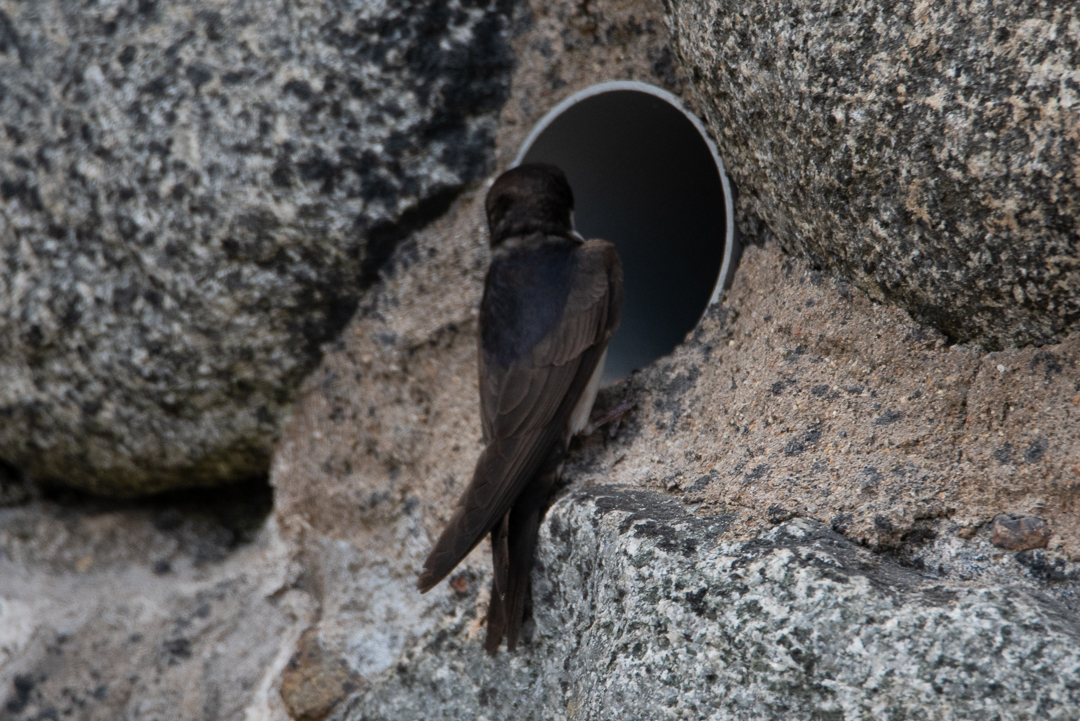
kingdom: Animalia
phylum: Chordata
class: Aves
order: Passeriformes
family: Hirundinidae
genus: Notiochelidon
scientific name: Notiochelidon cyanoleuca
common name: Blue-and-white swallow
